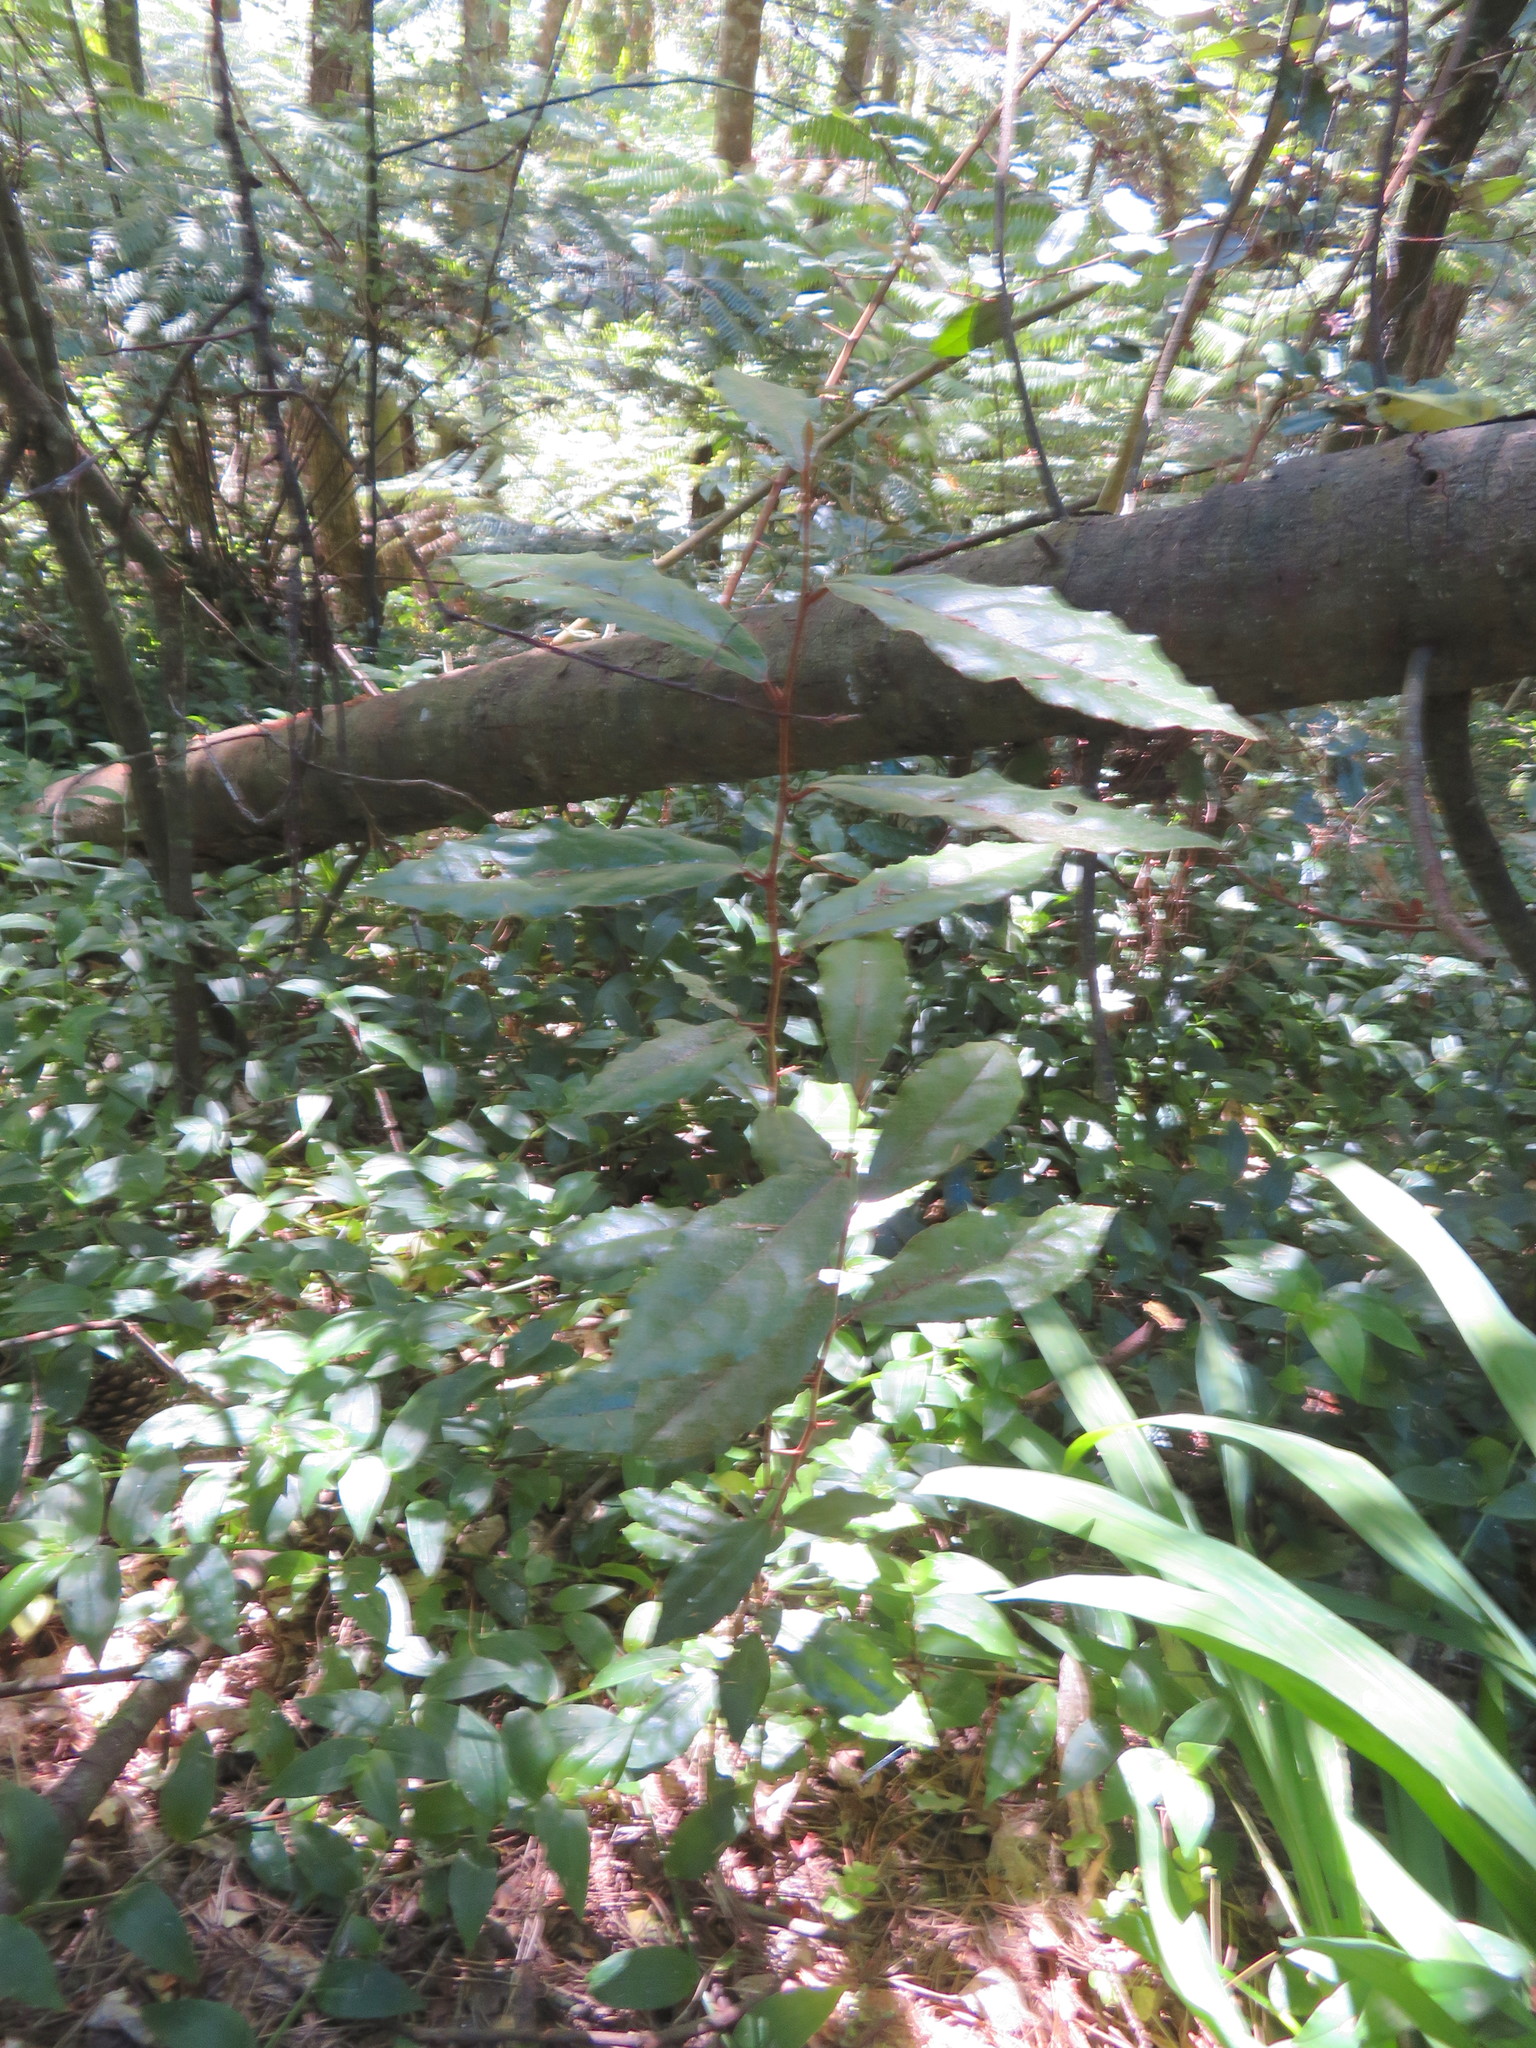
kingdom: Plantae
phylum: Tracheophyta
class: Magnoliopsida
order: Rosales
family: Elaeagnaceae
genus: Elaeagnus
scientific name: Elaeagnus reflexa
